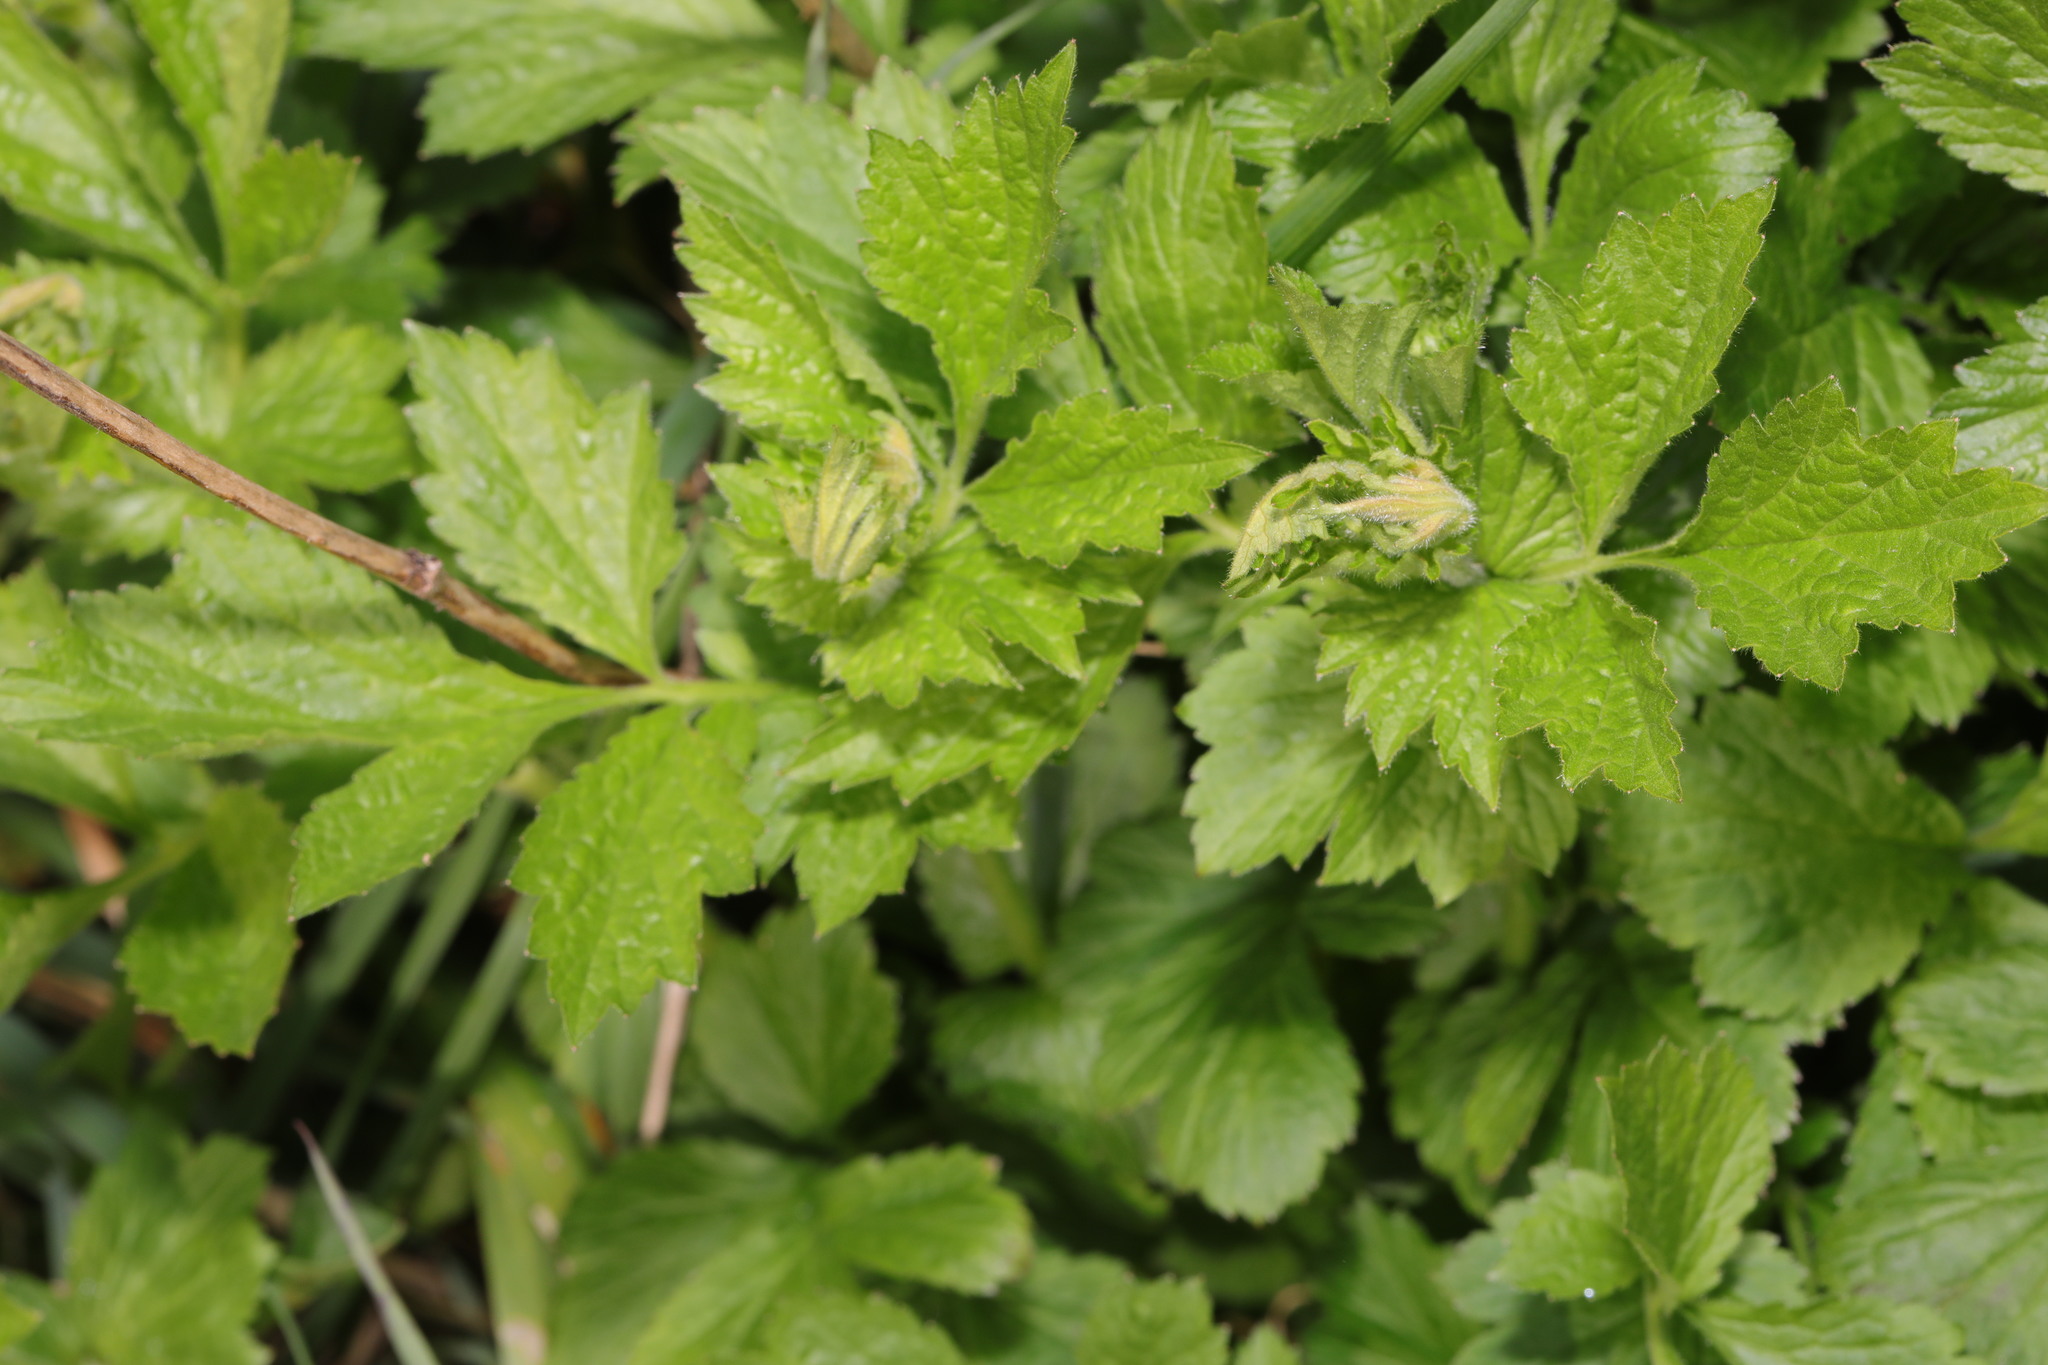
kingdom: Plantae
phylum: Tracheophyta
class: Magnoliopsida
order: Rosales
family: Rosaceae
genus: Geum
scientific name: Geum urbanum
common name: Wood avens
